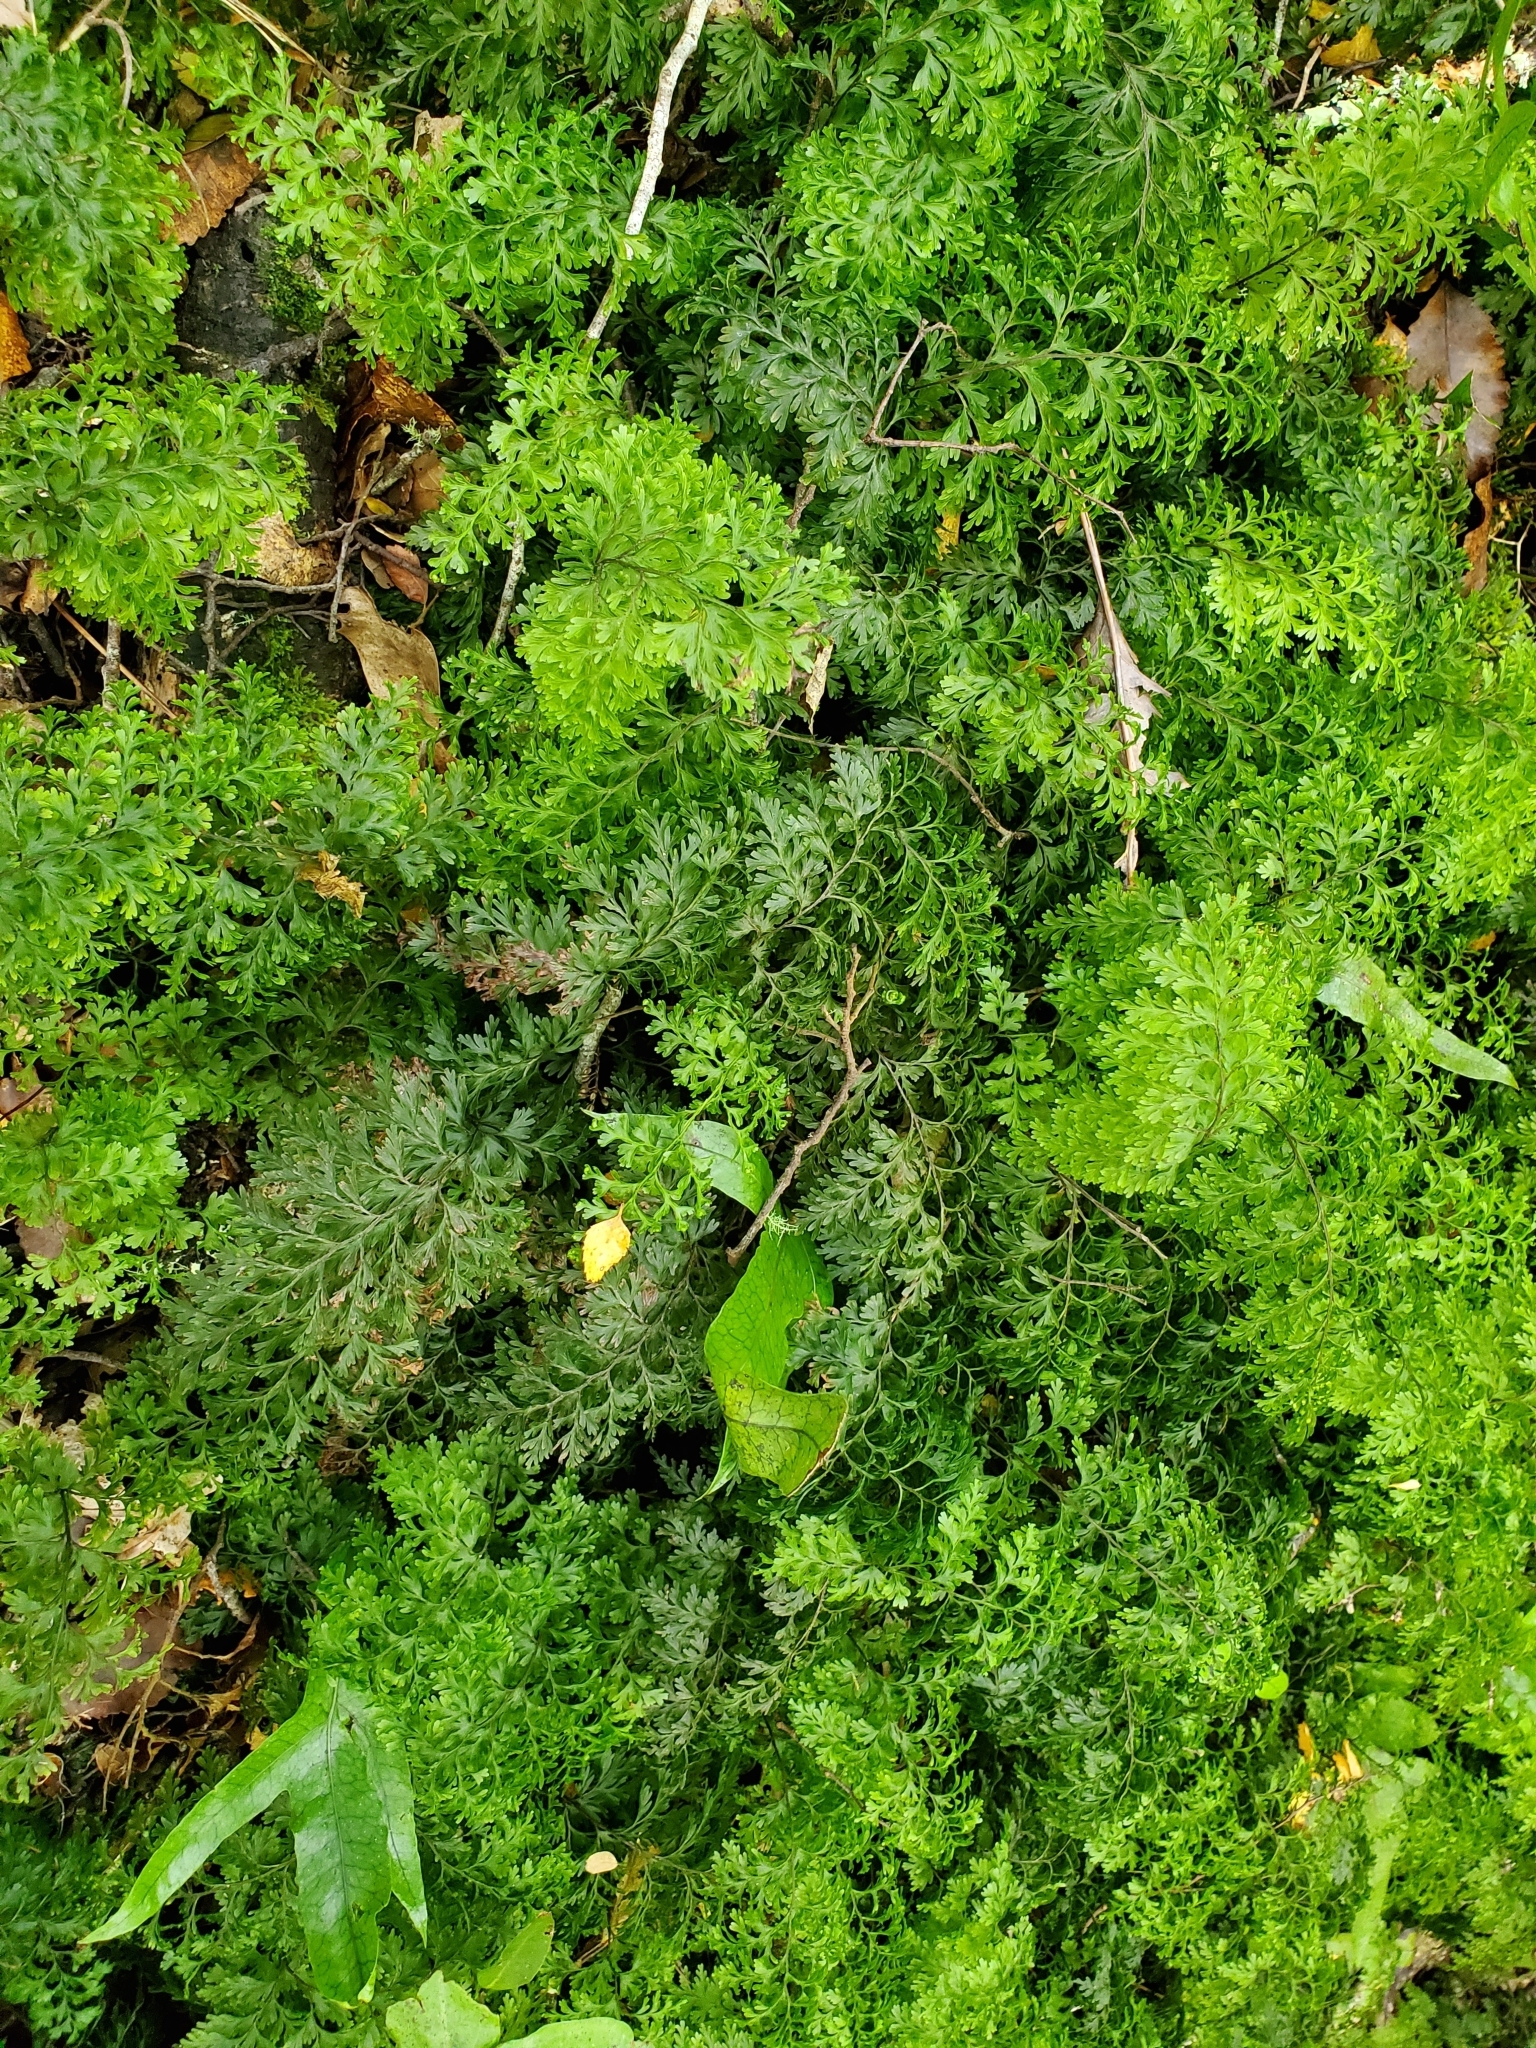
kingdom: Plantae
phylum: Tracheophyta
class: Polypodiopsida
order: Hymenophyllales
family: Hymenophyllaceae
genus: Hymenophyllum
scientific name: Hymenophyllum demissum
